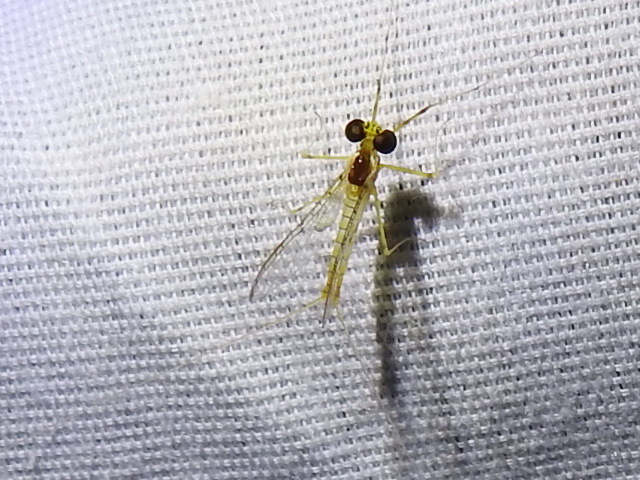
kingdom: Animalia
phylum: Arthropoda
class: Insecta
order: Ephemeroptera
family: Heptageniidae
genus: Stenacron
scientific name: Stenacron interpunctatum
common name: Orange cahill
